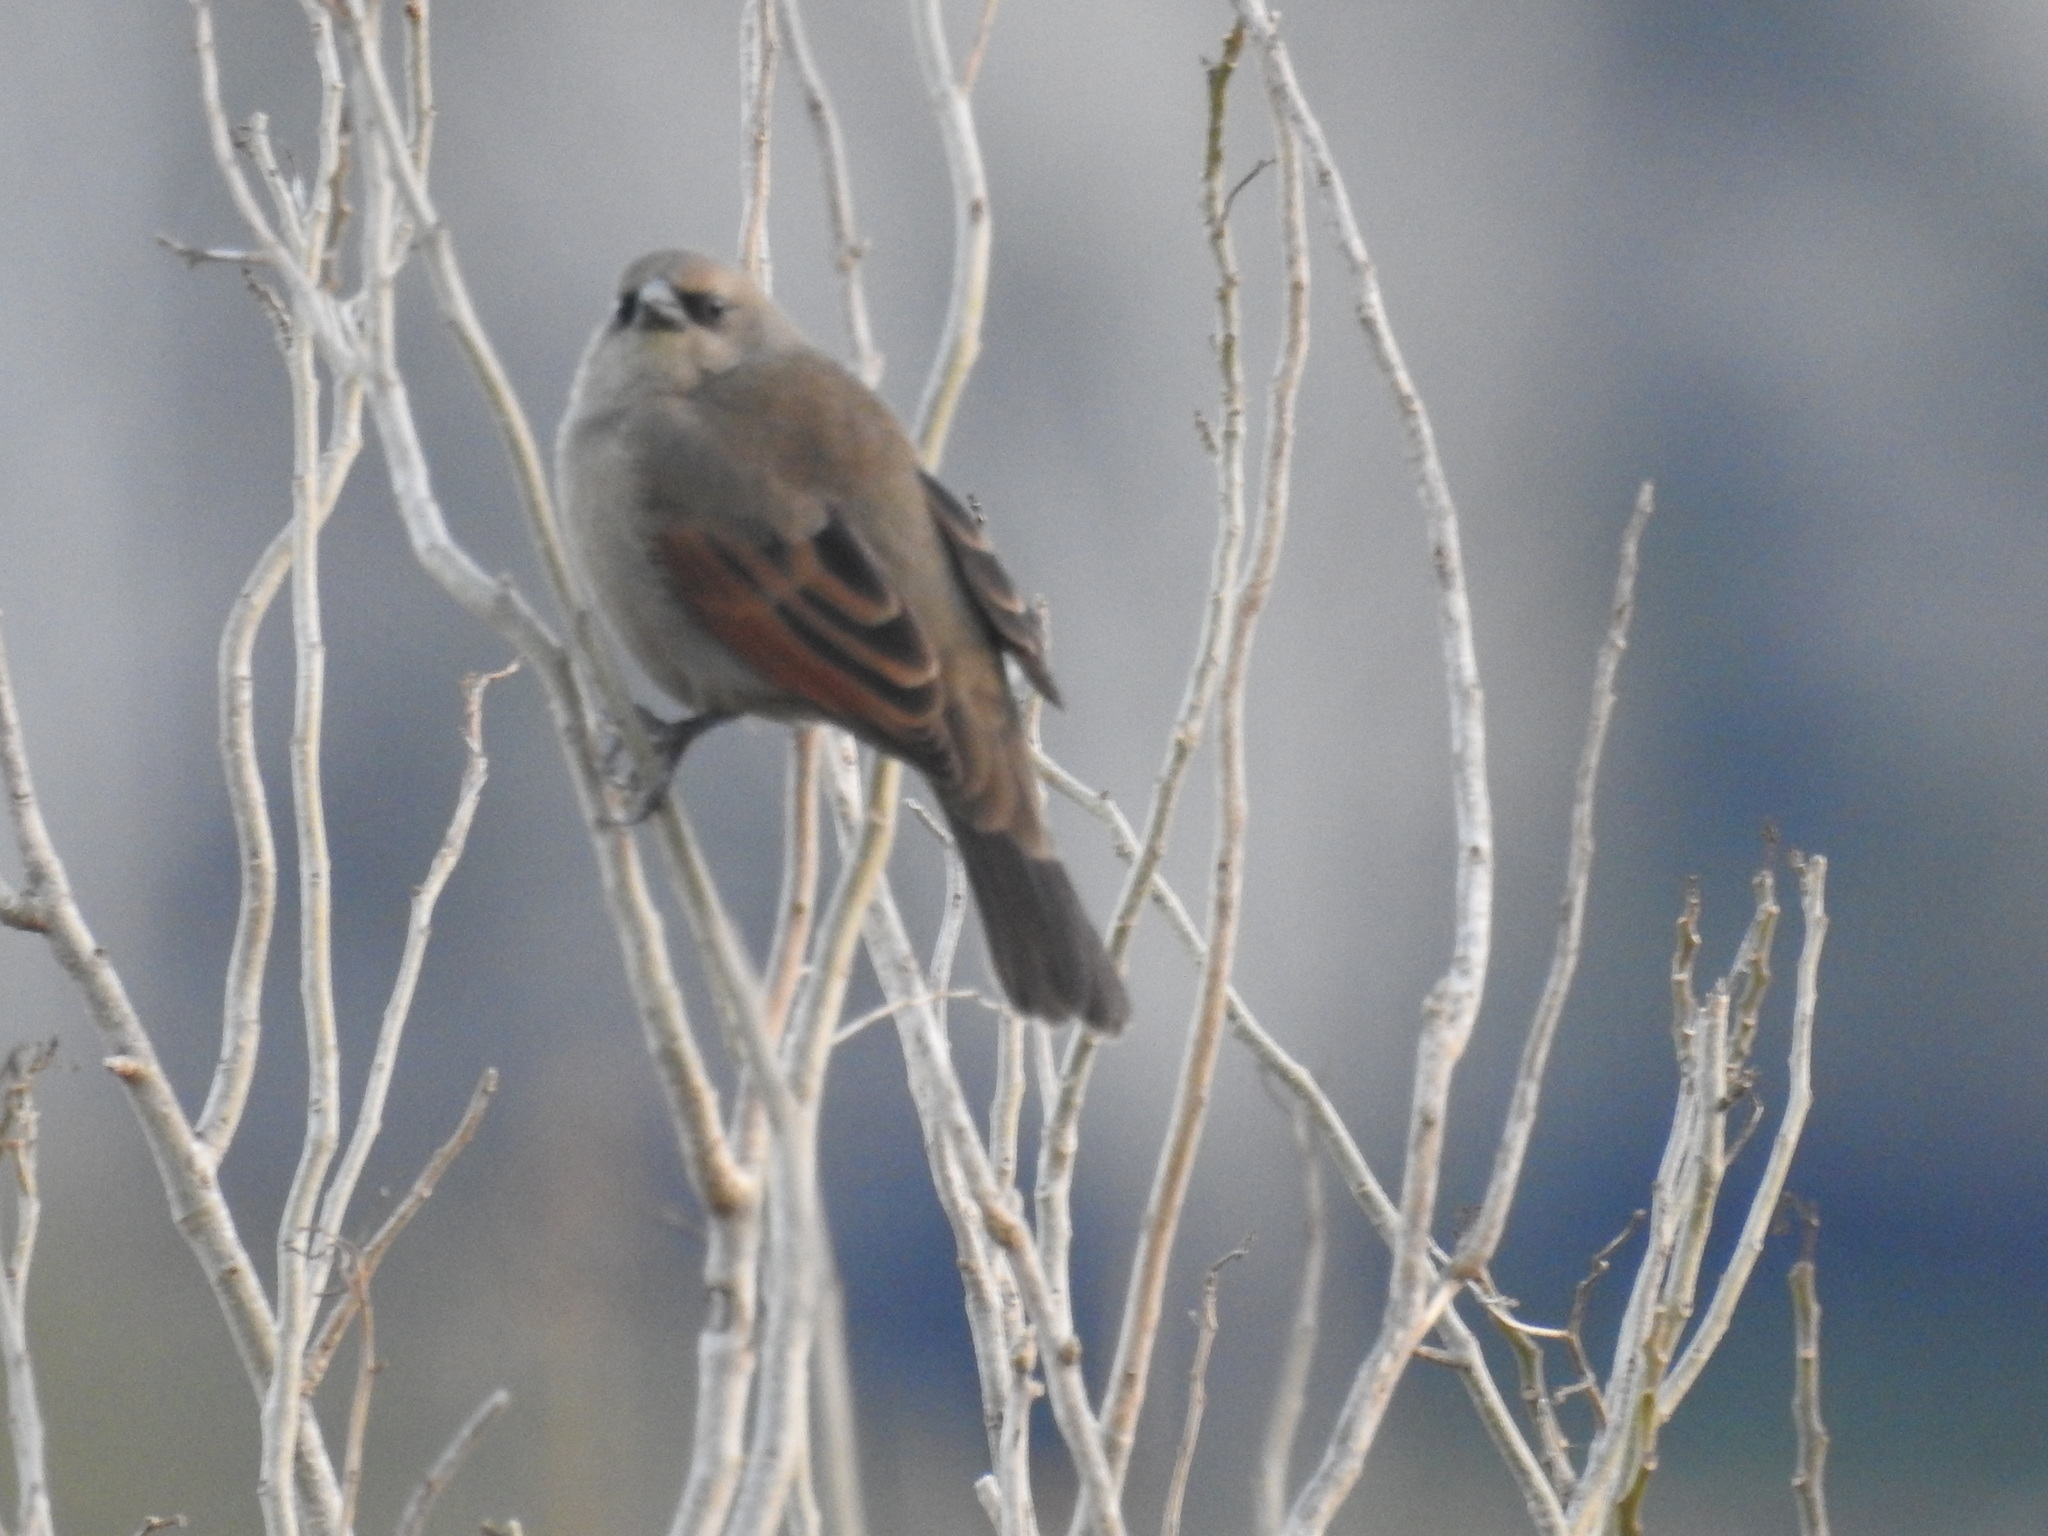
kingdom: Animalia
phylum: Chordata
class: Aves
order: Passeriformes
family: Icteridae
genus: Agelaioides
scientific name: Agelaioides badius
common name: Baywing
